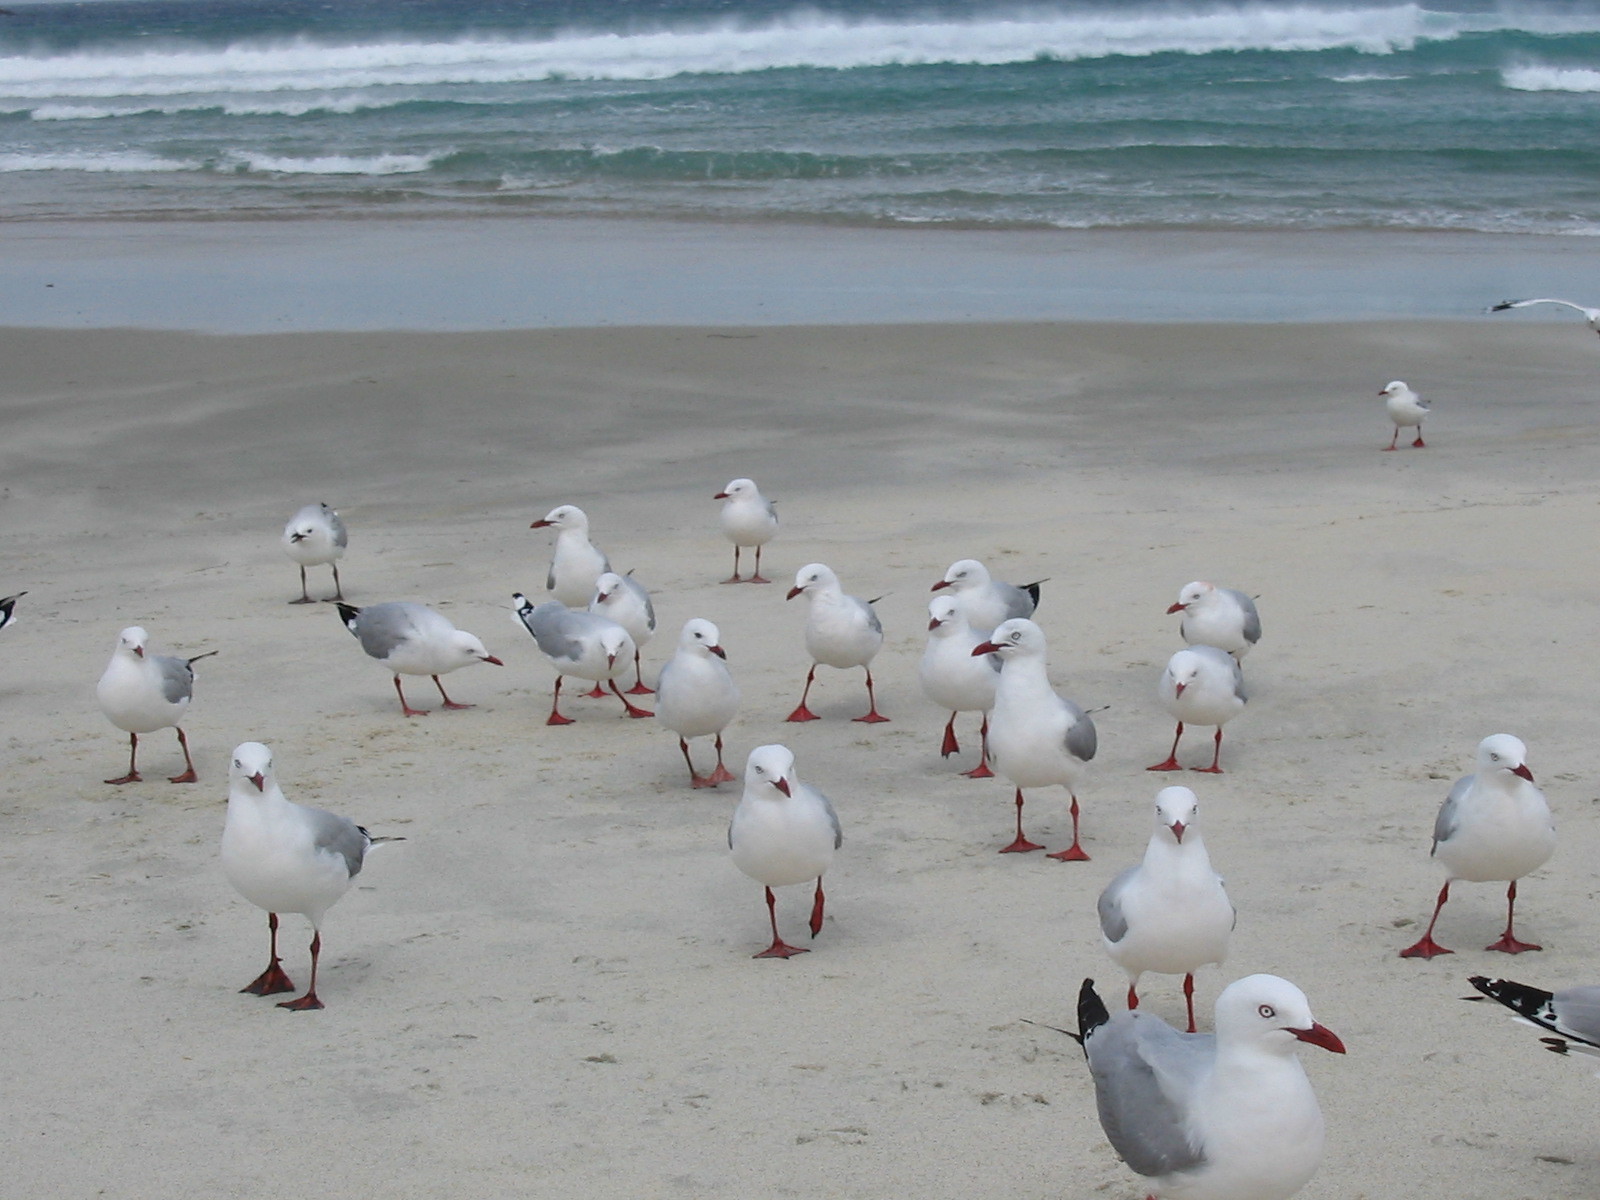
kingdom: Animalia
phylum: Chordata
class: Aves
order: Charadriiformes
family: Laridae
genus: Chroicocephalus
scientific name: Chroicocephalus novaehollandiae
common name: Silver gull
